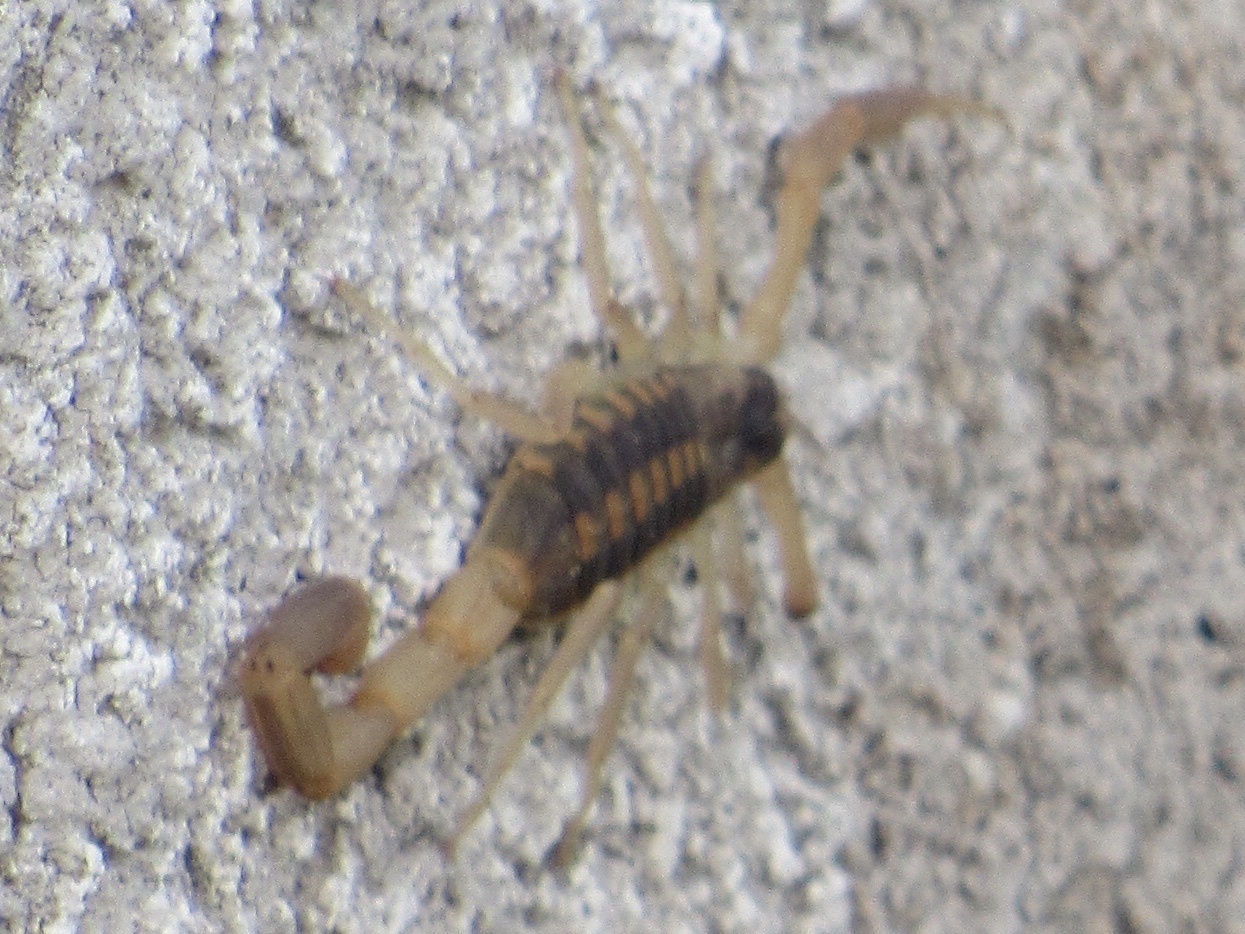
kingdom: Animalia
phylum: Arthropoda
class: Arachnida
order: Scorpiones
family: Buthidae
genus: Centruroides
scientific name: Centruroides vittatus
